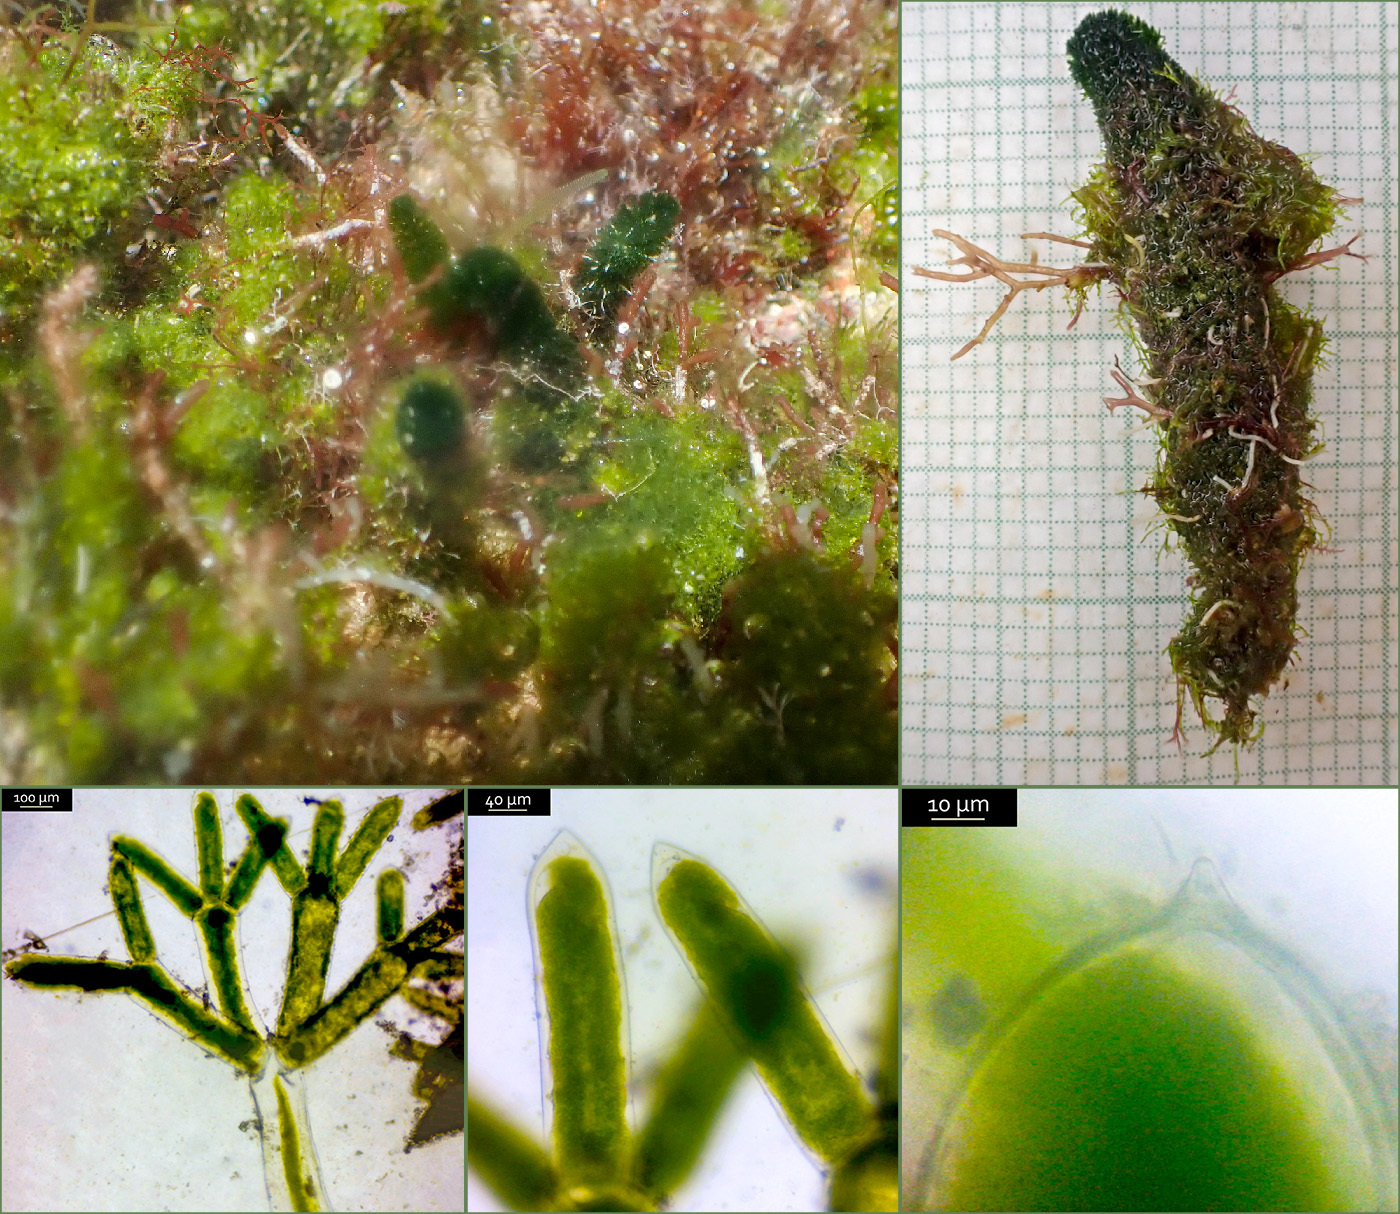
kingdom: Plantae
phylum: Chlorophyta
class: Ulvophyceae
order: Dasycladales
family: Dasycladaceae
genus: Dasycladus
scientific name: Dasycladus vermicularis
